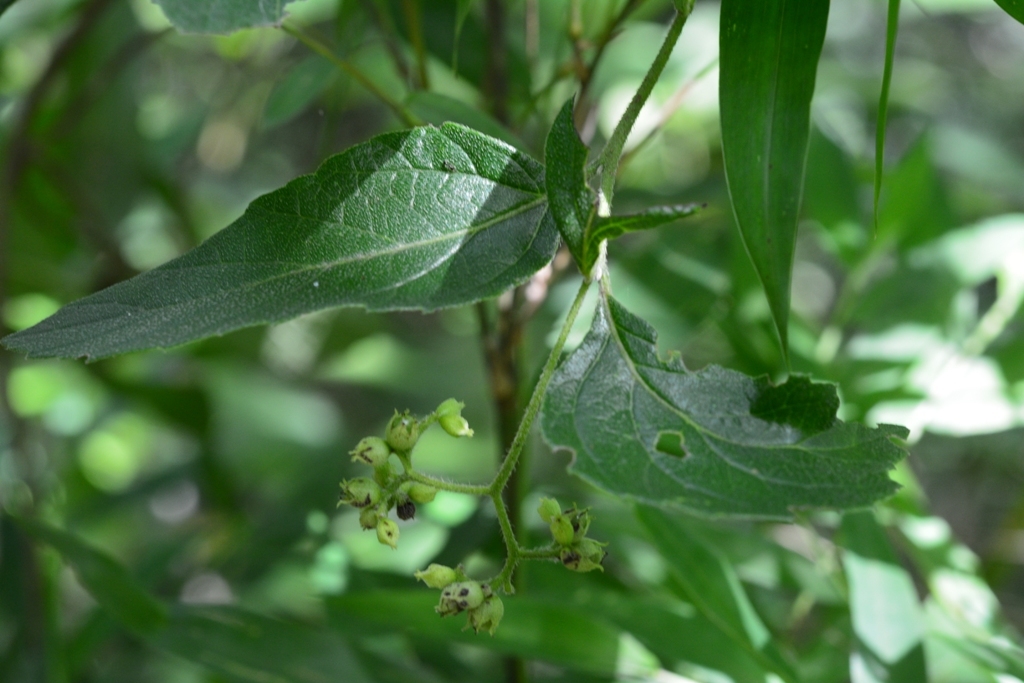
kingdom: Plantae
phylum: Tracheophyta
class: Magnoliopsida
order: Boraginales
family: Cordiaceae
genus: Varronia
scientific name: Varronia foliosa
